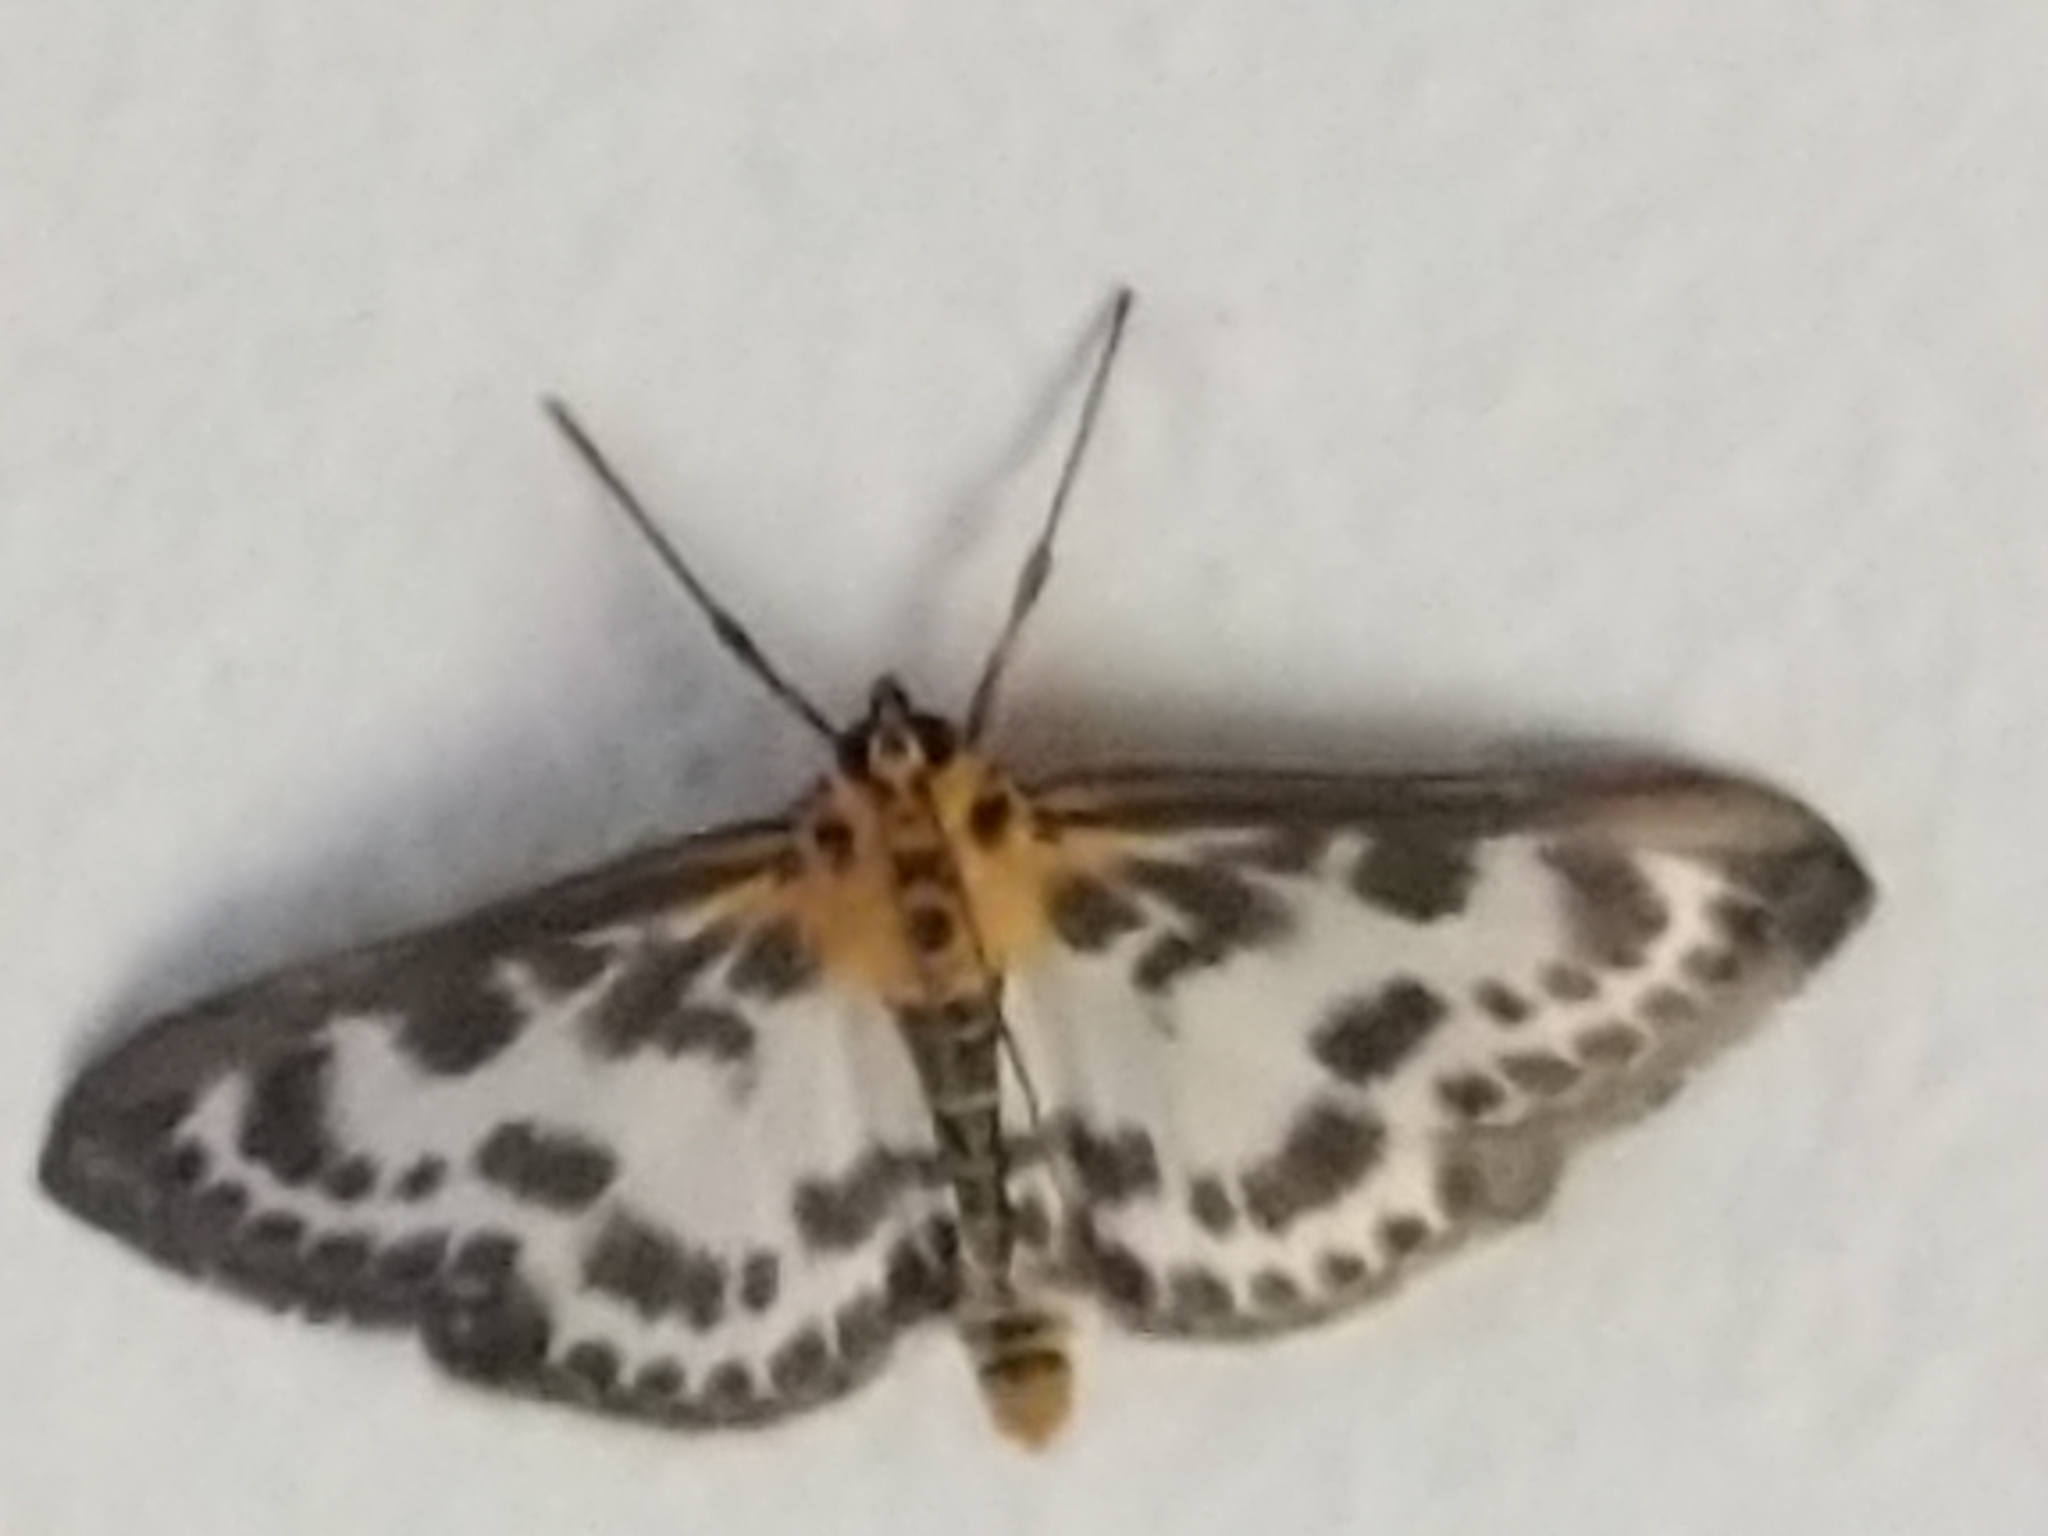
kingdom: Animalia
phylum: Arthropoda
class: Insecta
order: Lepidoptera
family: Crambidae
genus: Anania
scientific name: Anania hortulata
